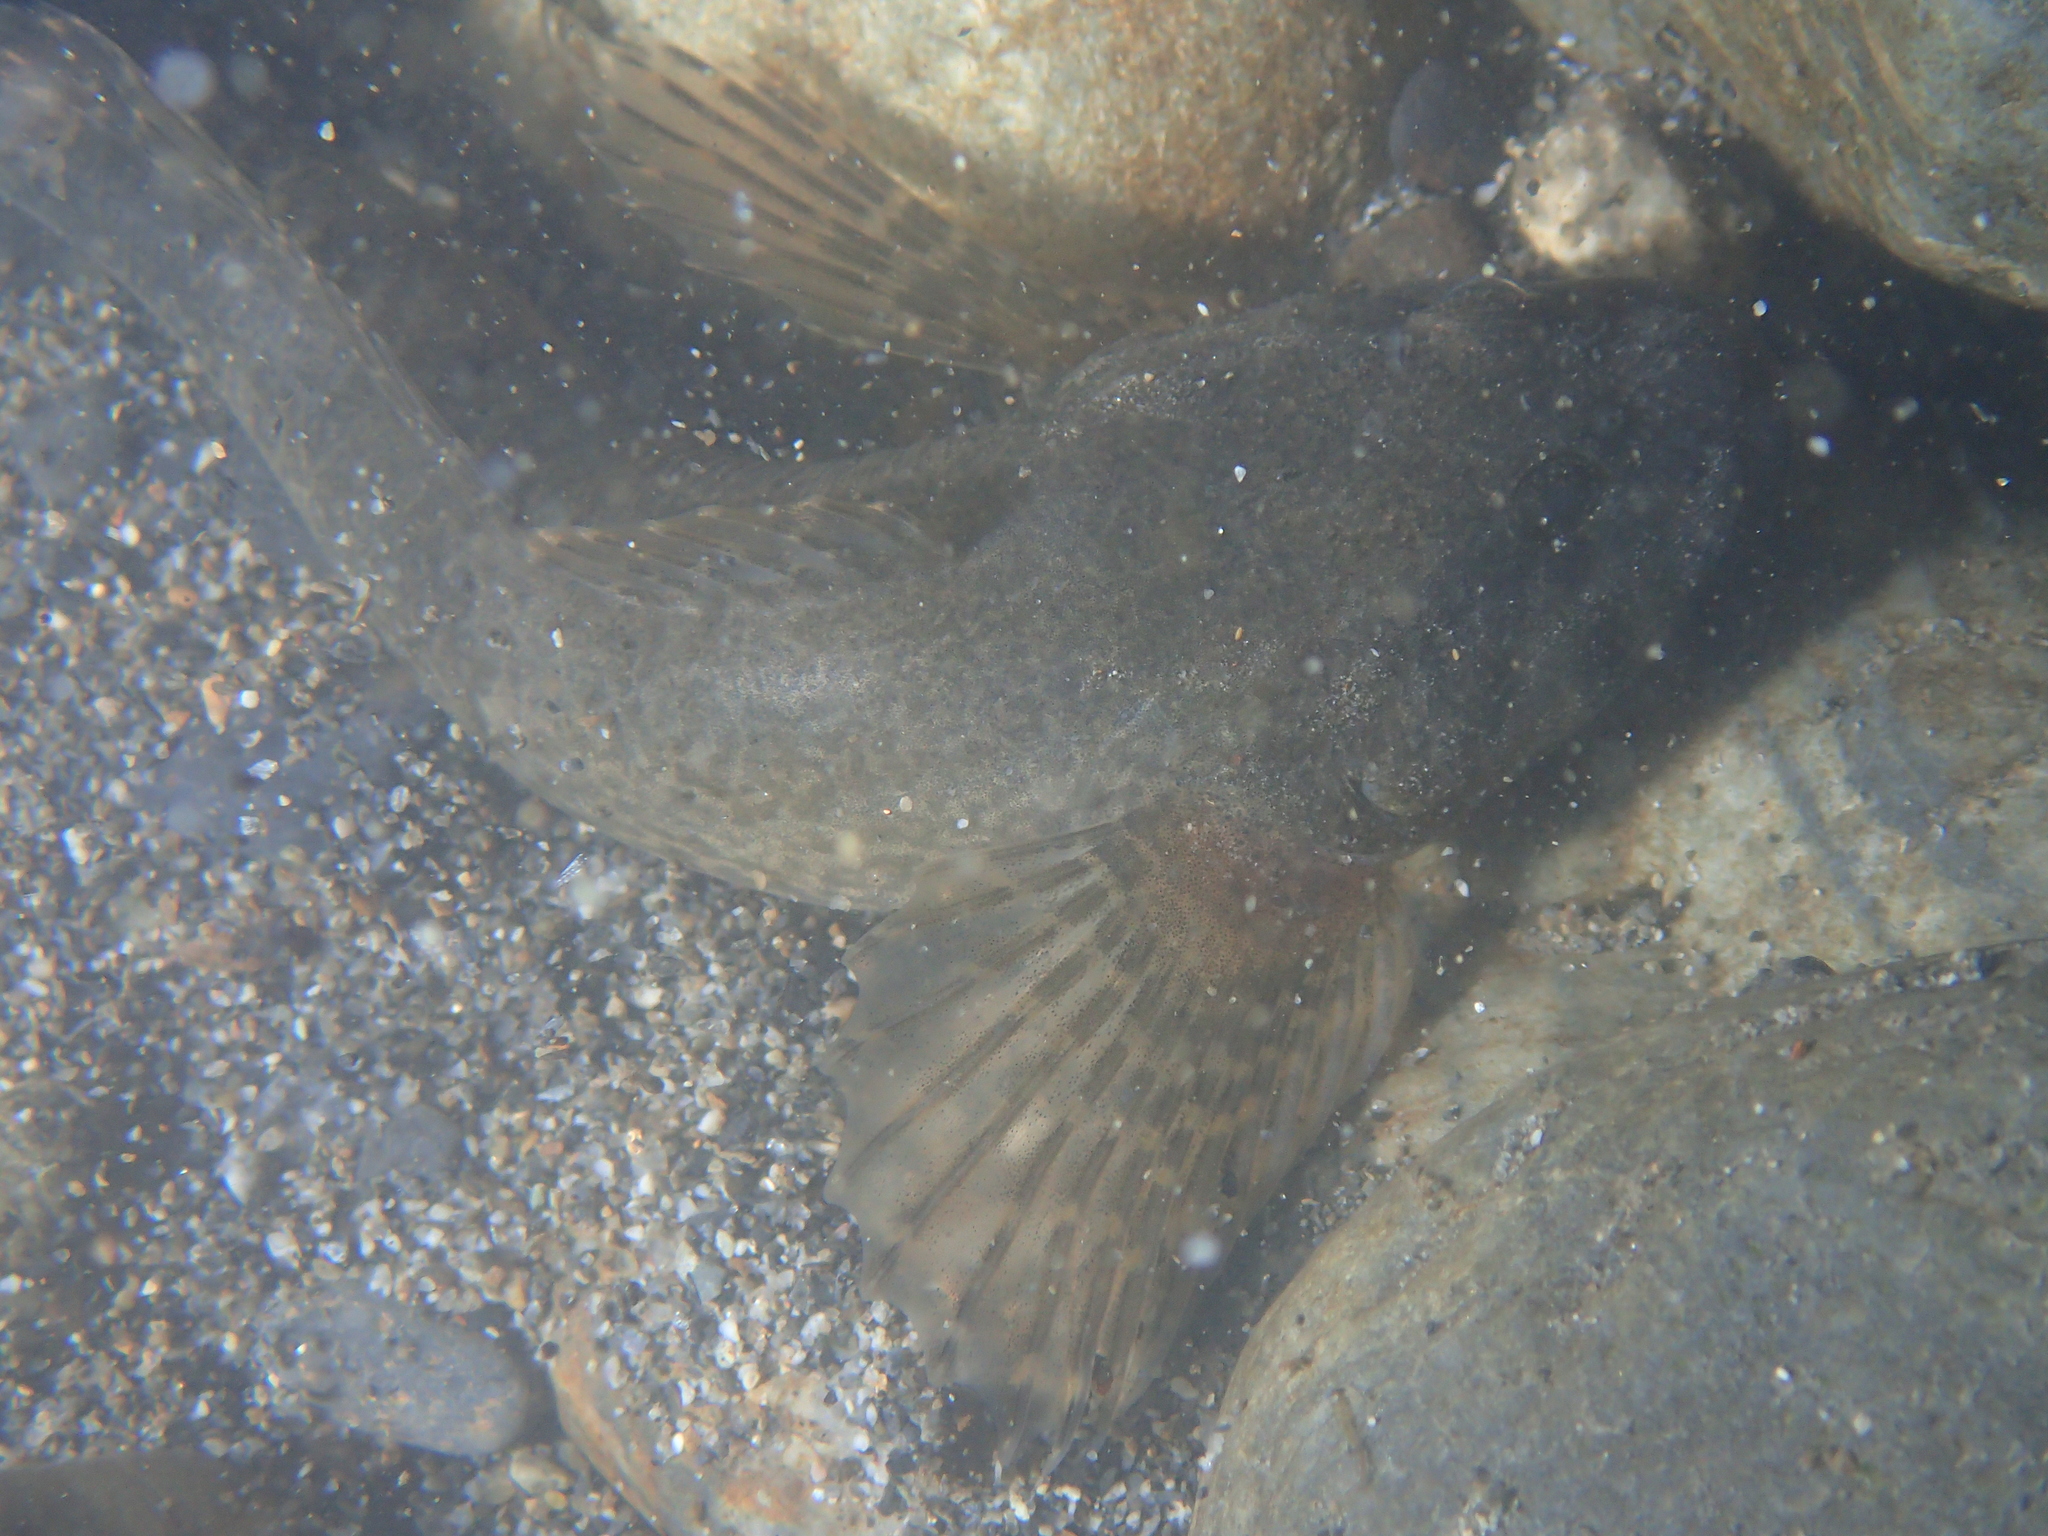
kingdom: Animalia
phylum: Chordata
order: Scorpaeniformes
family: Cottidae
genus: Cottus
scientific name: Cottus aturi
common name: Adour sculpin
